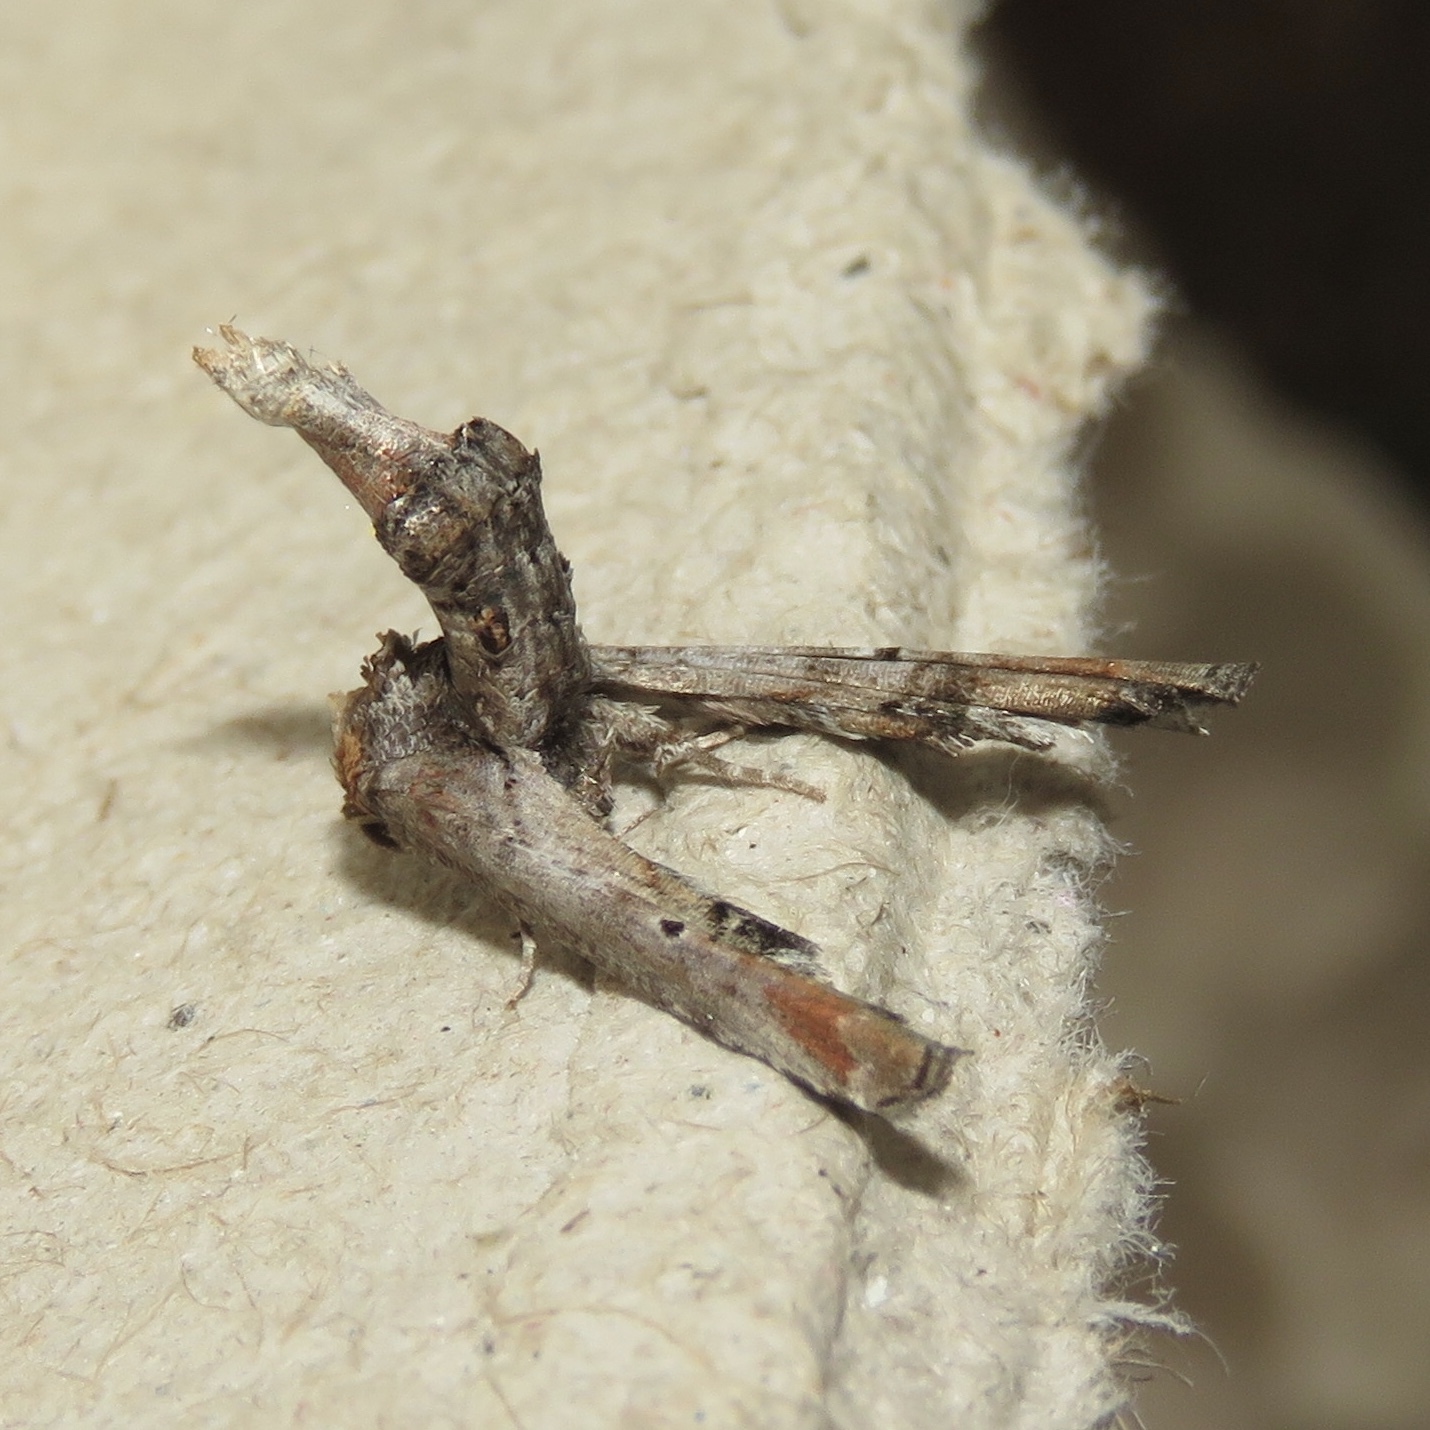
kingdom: Animalia
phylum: Arthropoda
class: Insecta
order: Lepidoptera
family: Euteliidae
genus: Marathyssa
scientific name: Marathyssa inficita
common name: Dark marathyssa moth
